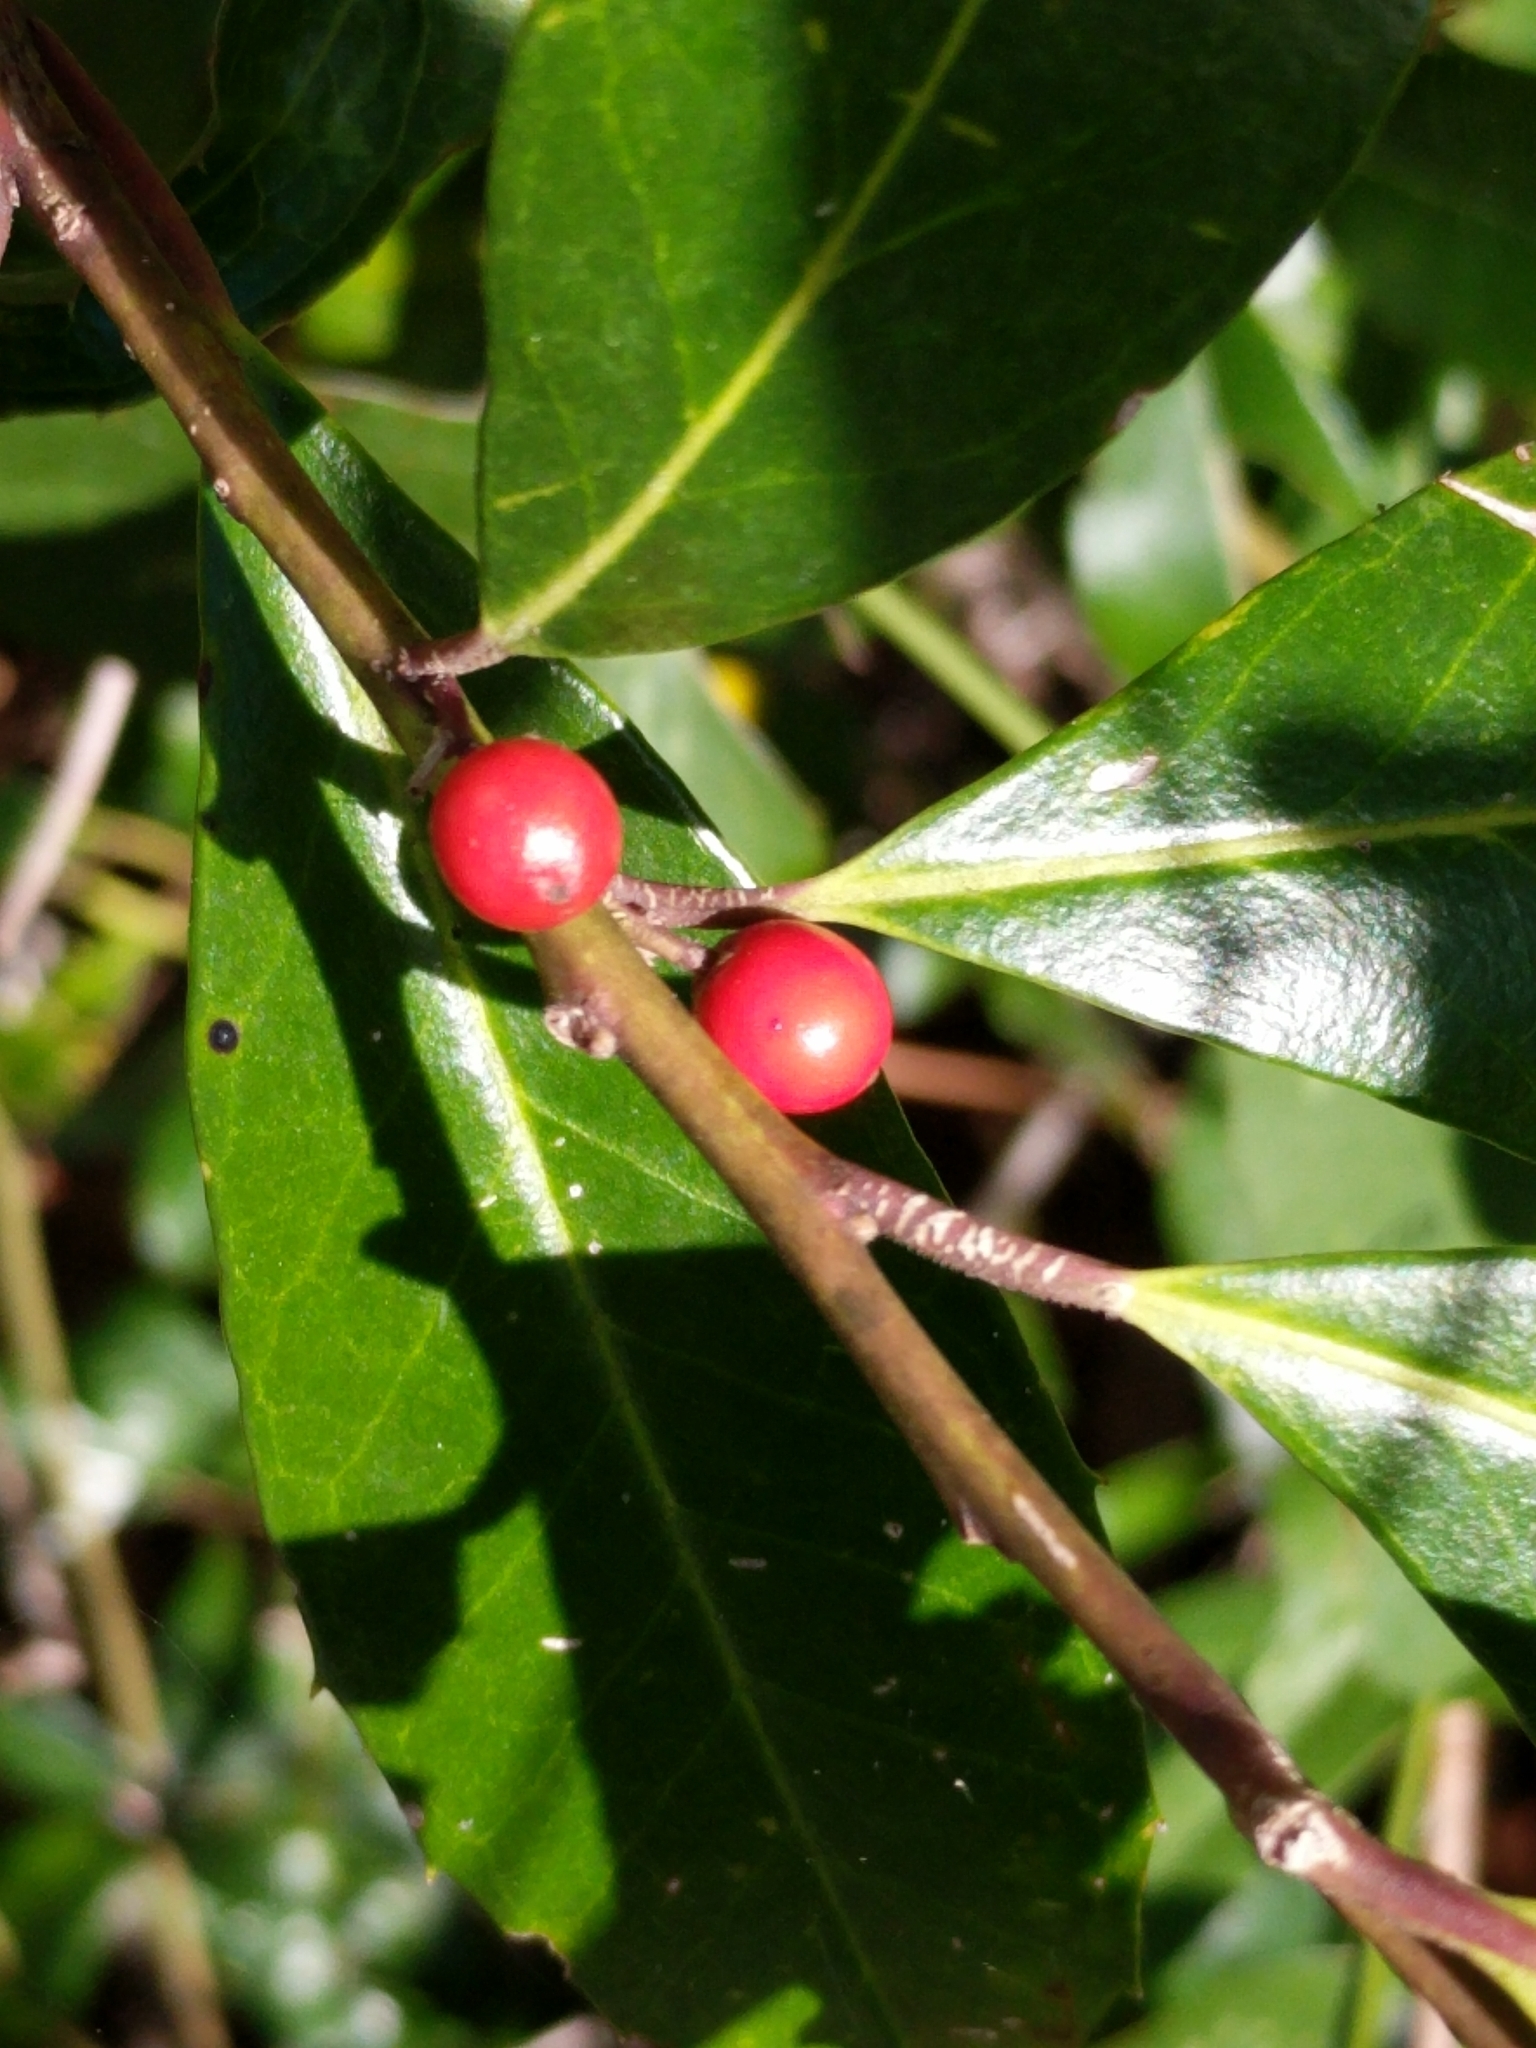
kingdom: Plantae
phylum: Tracheophyta
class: Magnoliopsida
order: Aquifoliales
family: Aquifoliaceae
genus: Ilex
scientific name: Ilex cassine
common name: Dahoon
